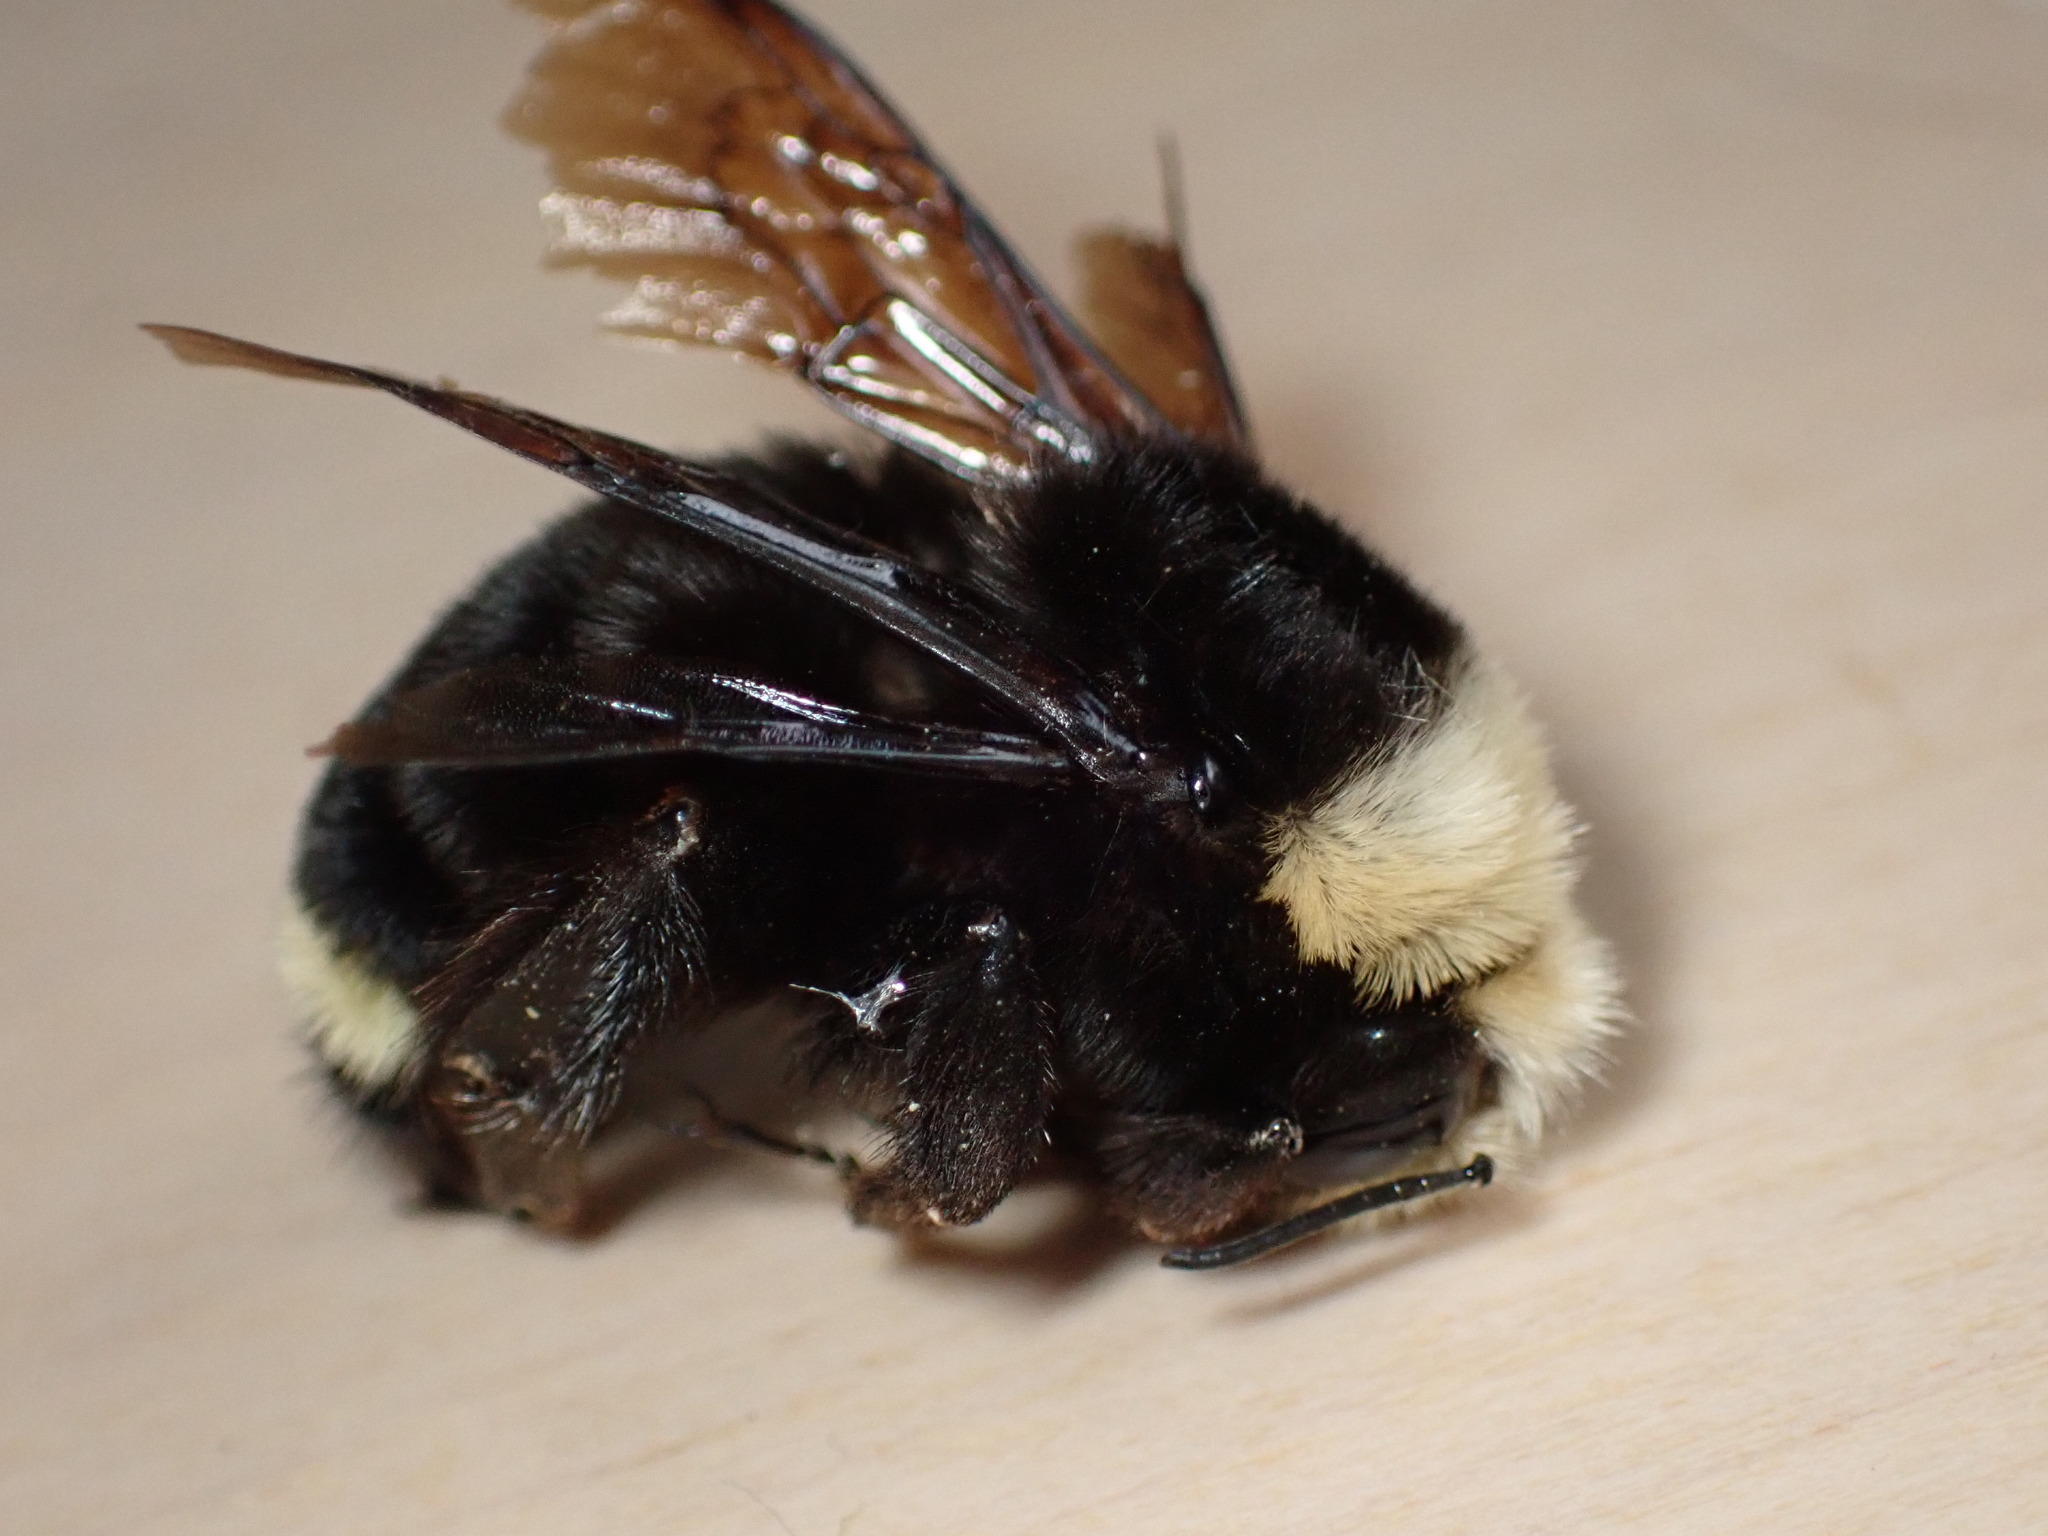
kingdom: Animalia
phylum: Arthropoda
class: Insecta
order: Hymenoptera
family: Apidae
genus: Bombus
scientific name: Bombus vosnesenskii
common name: Vosnesensky bumble bee
